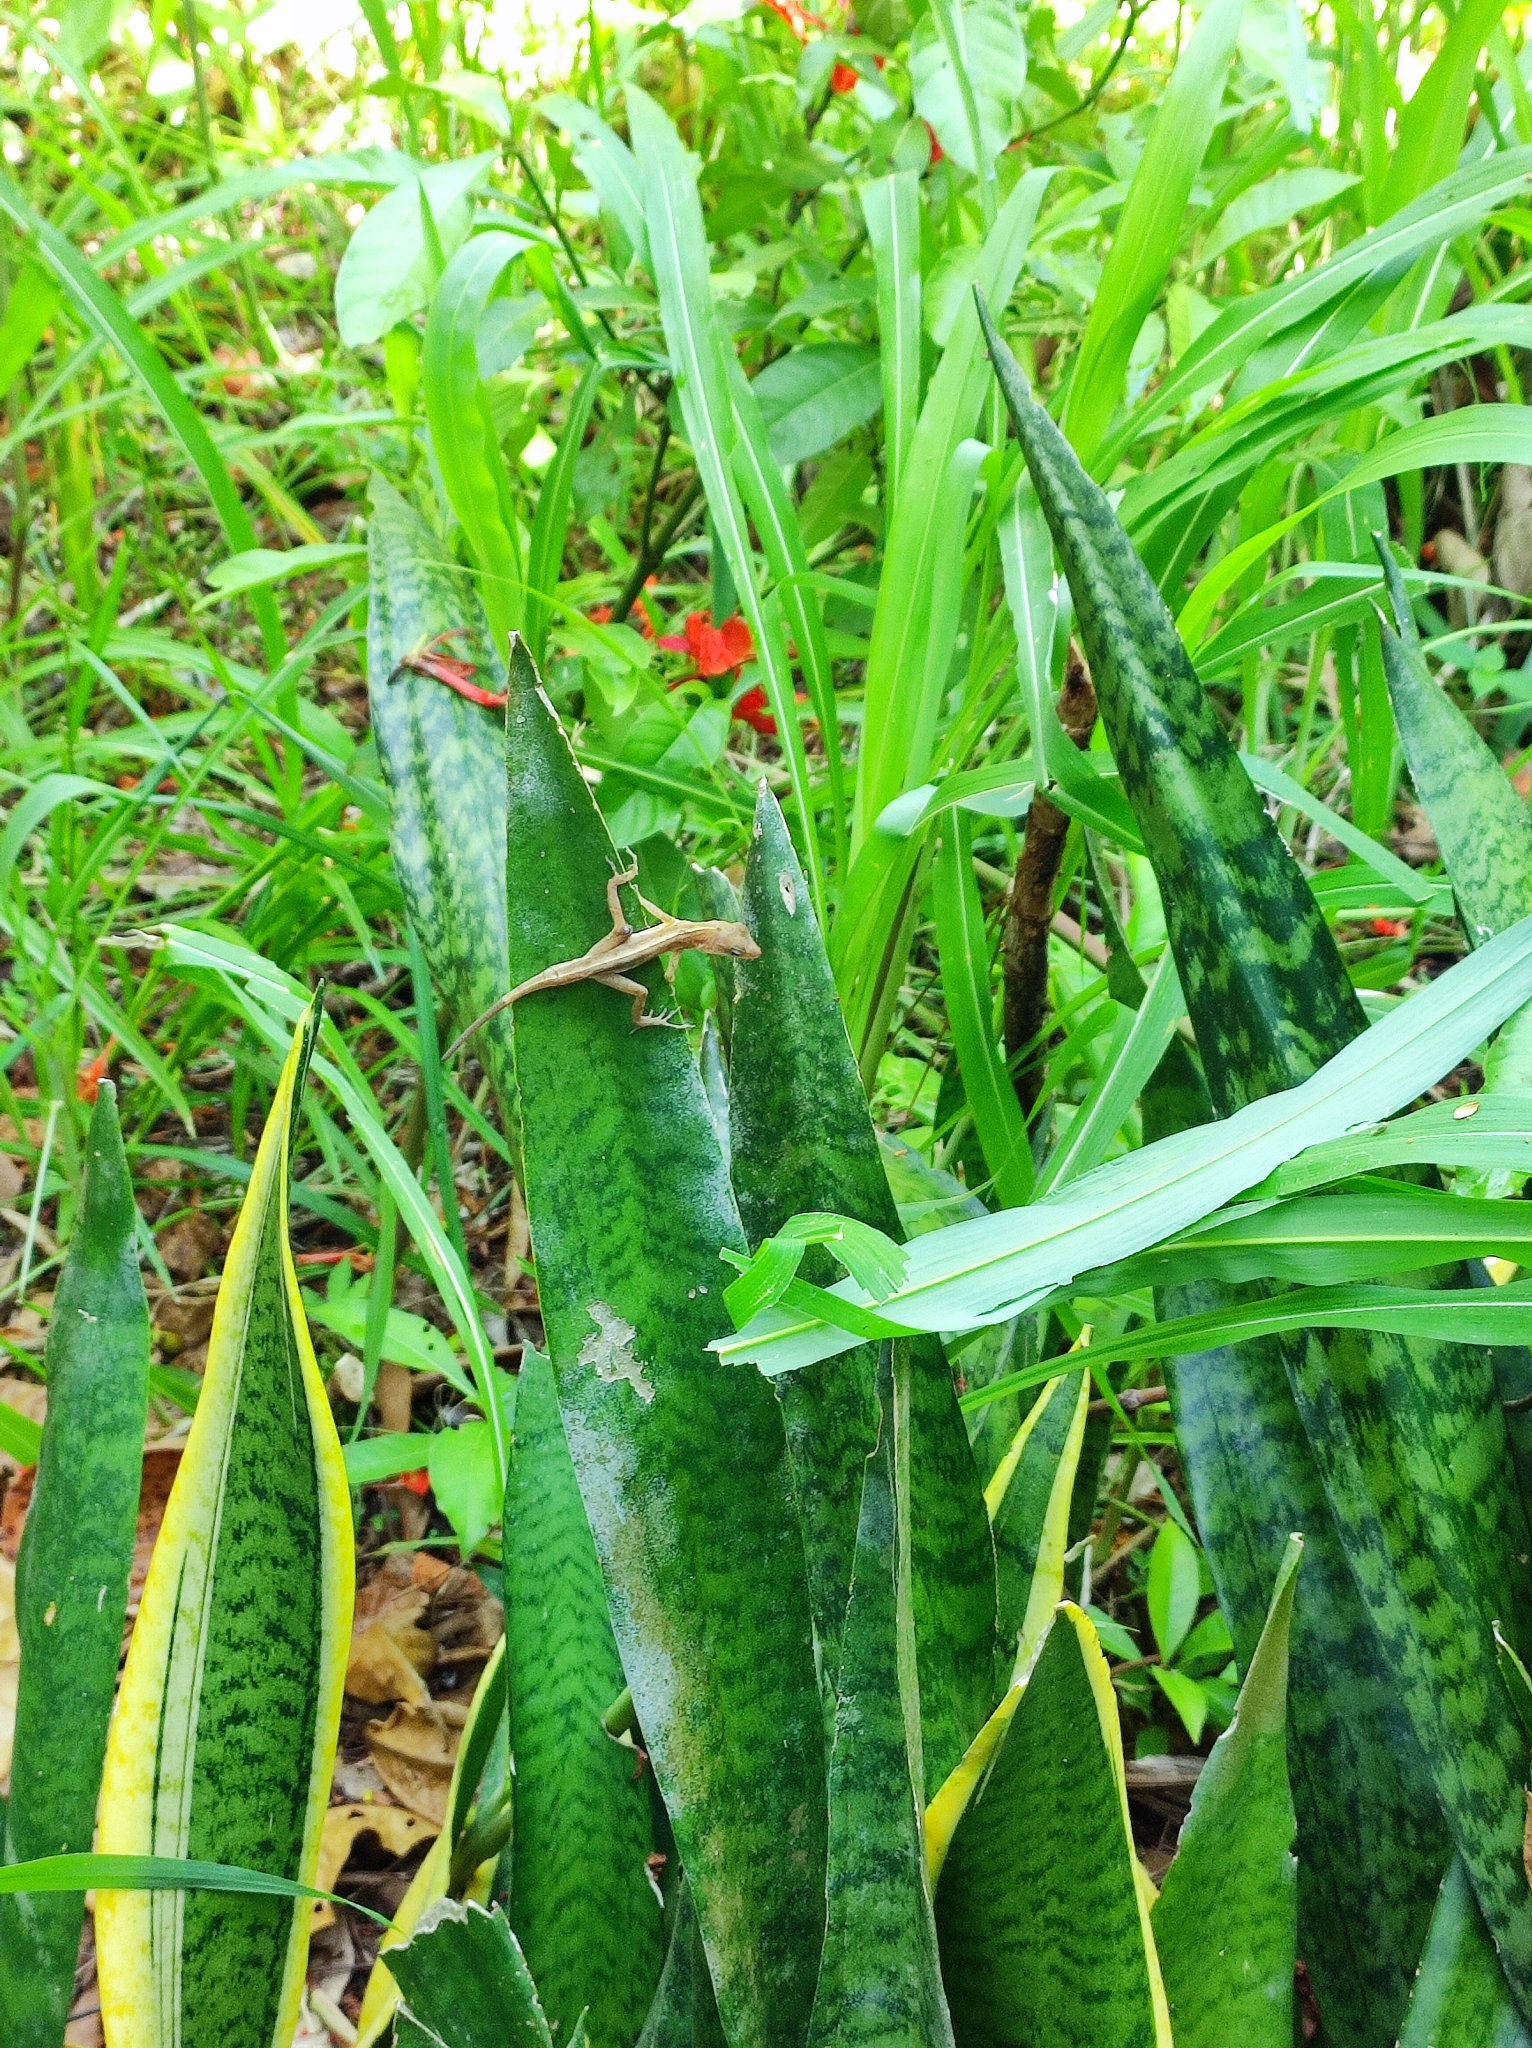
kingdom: Animalia
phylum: Chordata
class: Squamata
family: Dactyloidae
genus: Anolis
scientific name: Anolis limifrons
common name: Border anole
